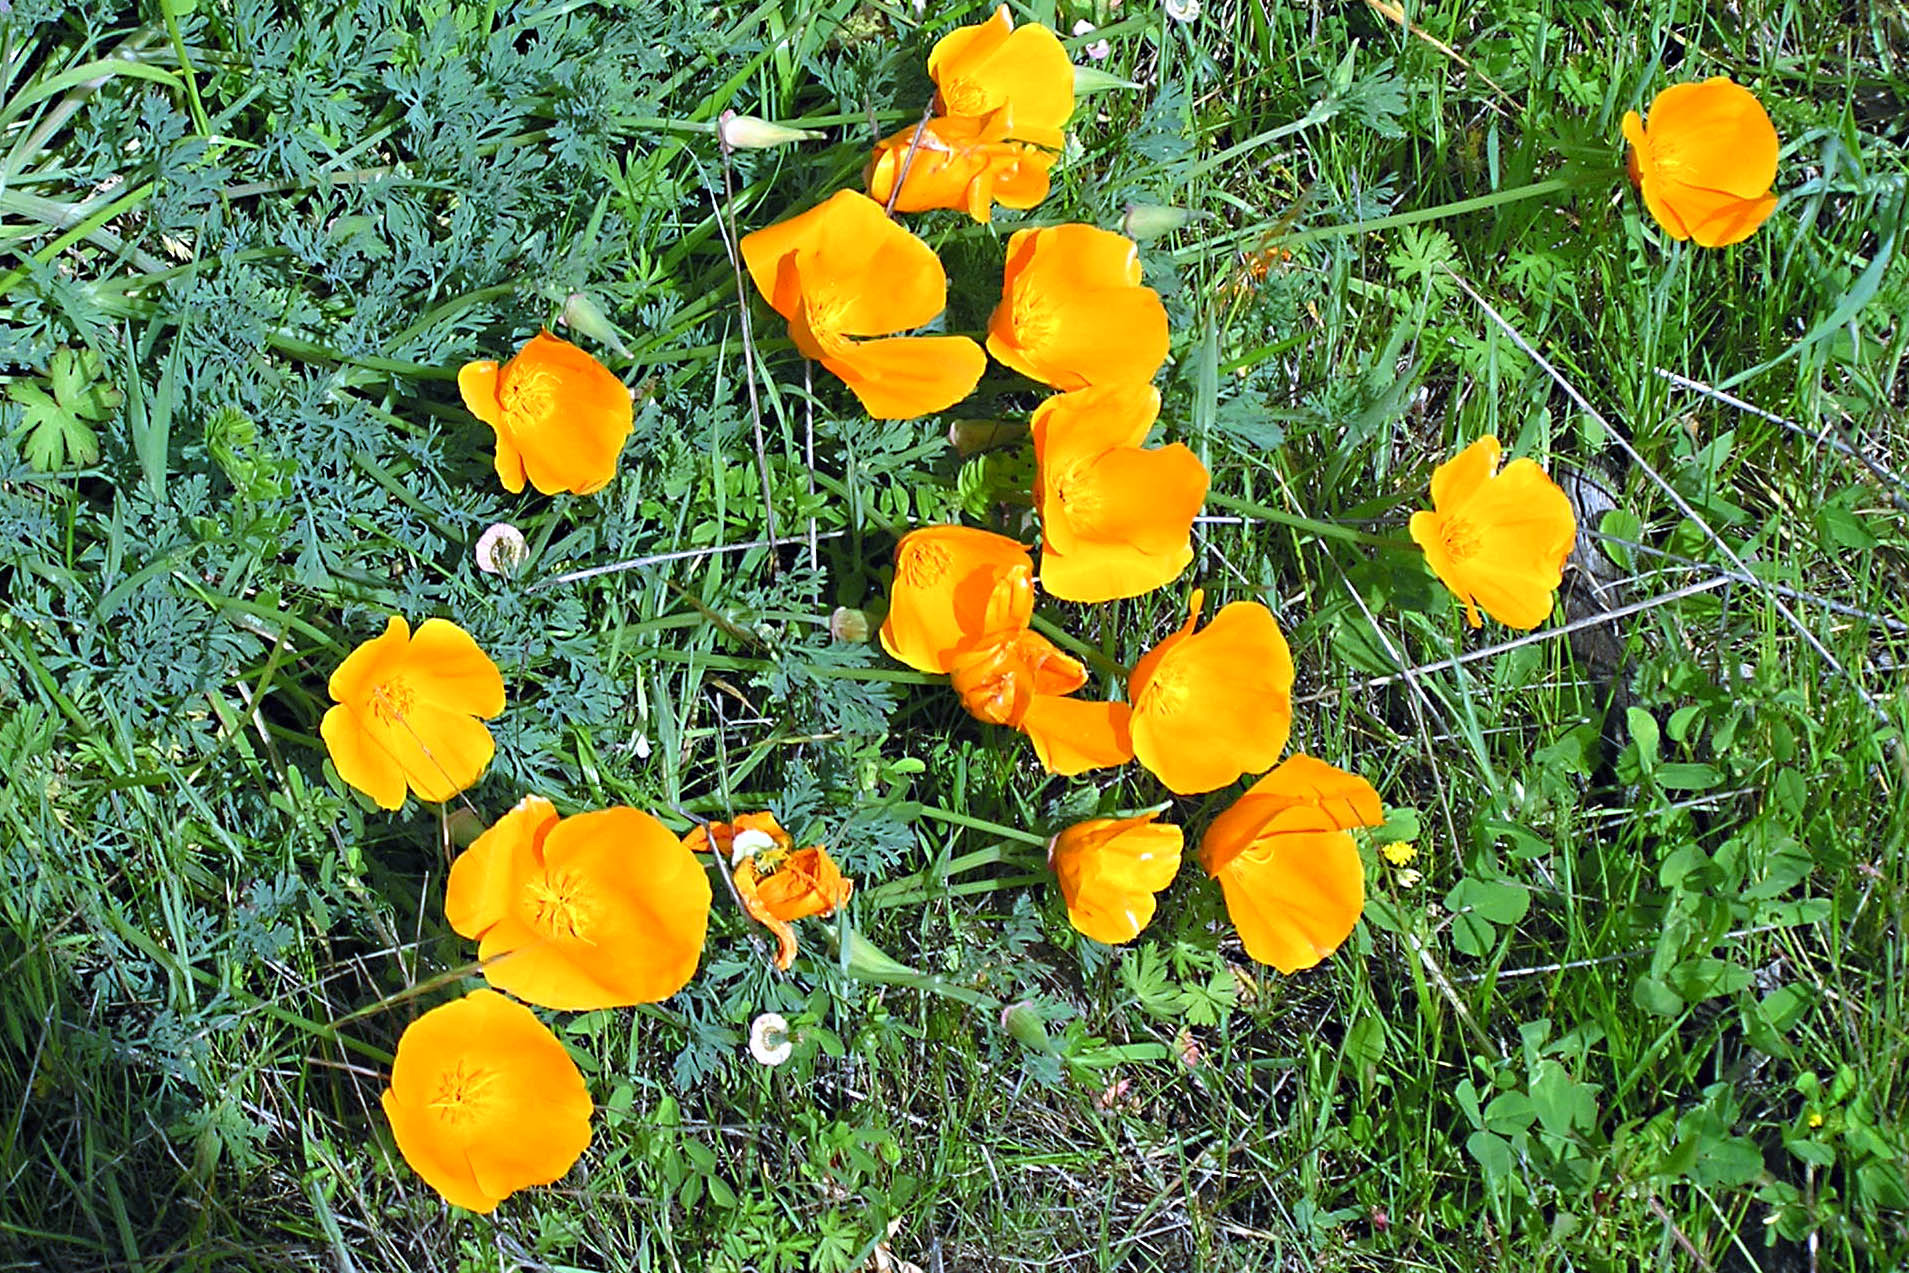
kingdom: Plantae
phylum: Tracheophyta
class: Magnoliopsida
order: Ranunculales
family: Papaveraceae
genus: Eschscholzia
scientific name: Eschscholzia californica
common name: California poppy
